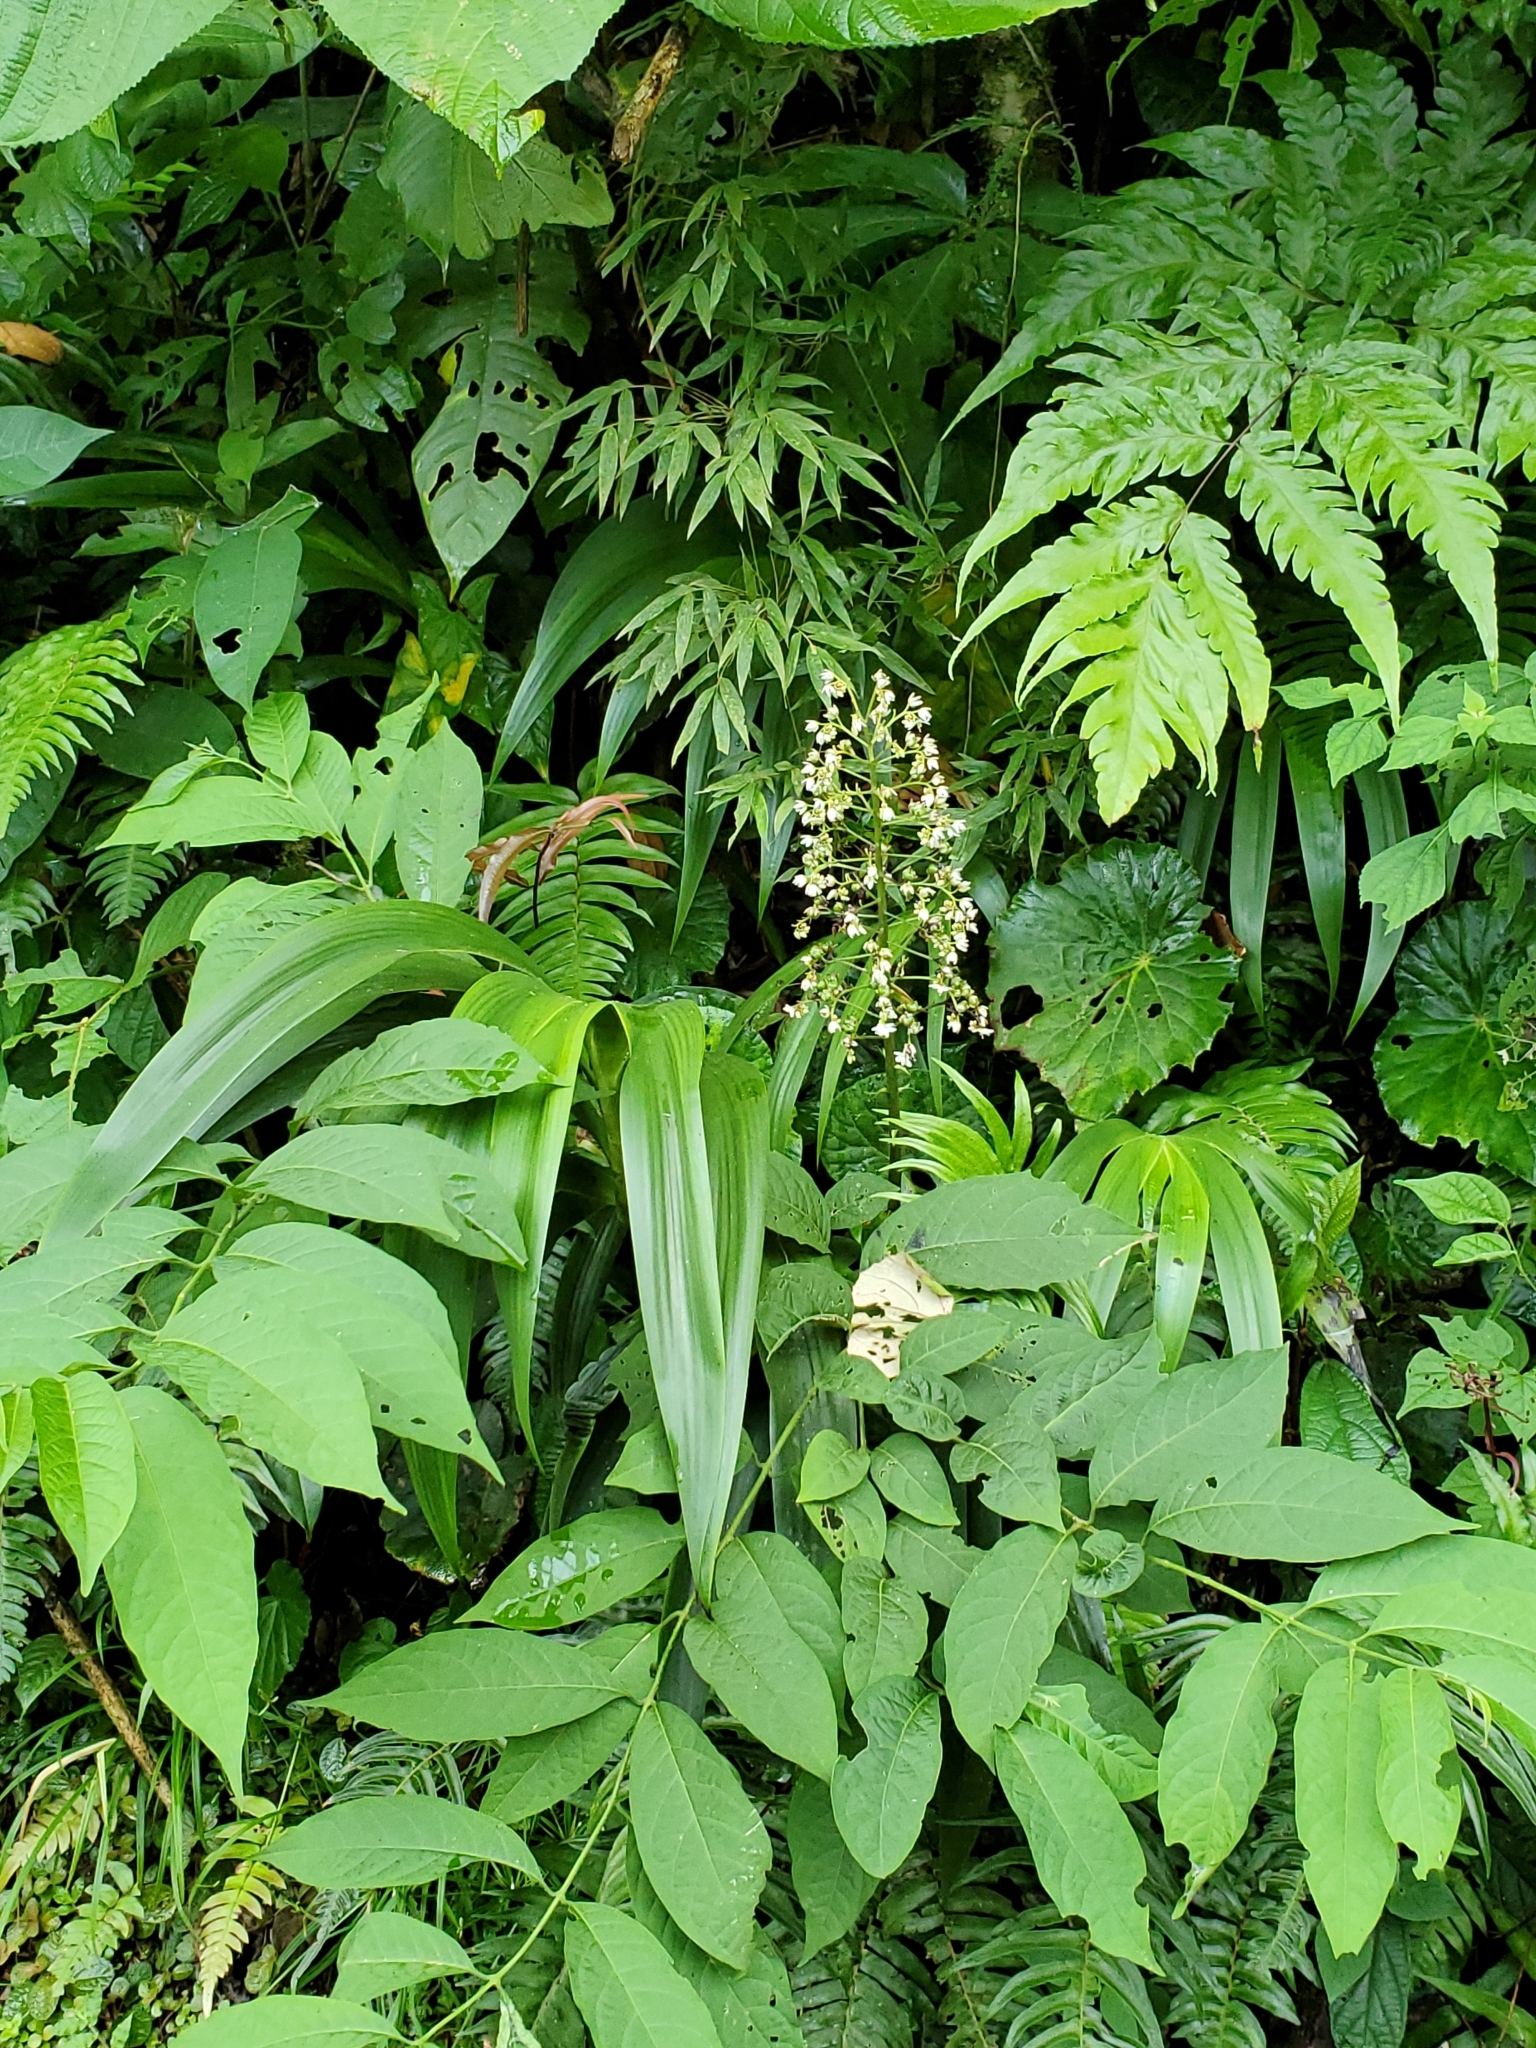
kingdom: Plantae
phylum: Tracheophyta
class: Liliopsida
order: Commelinales
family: Haemodoraceae
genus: Xiphidium
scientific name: Xiphidium caeruleum
